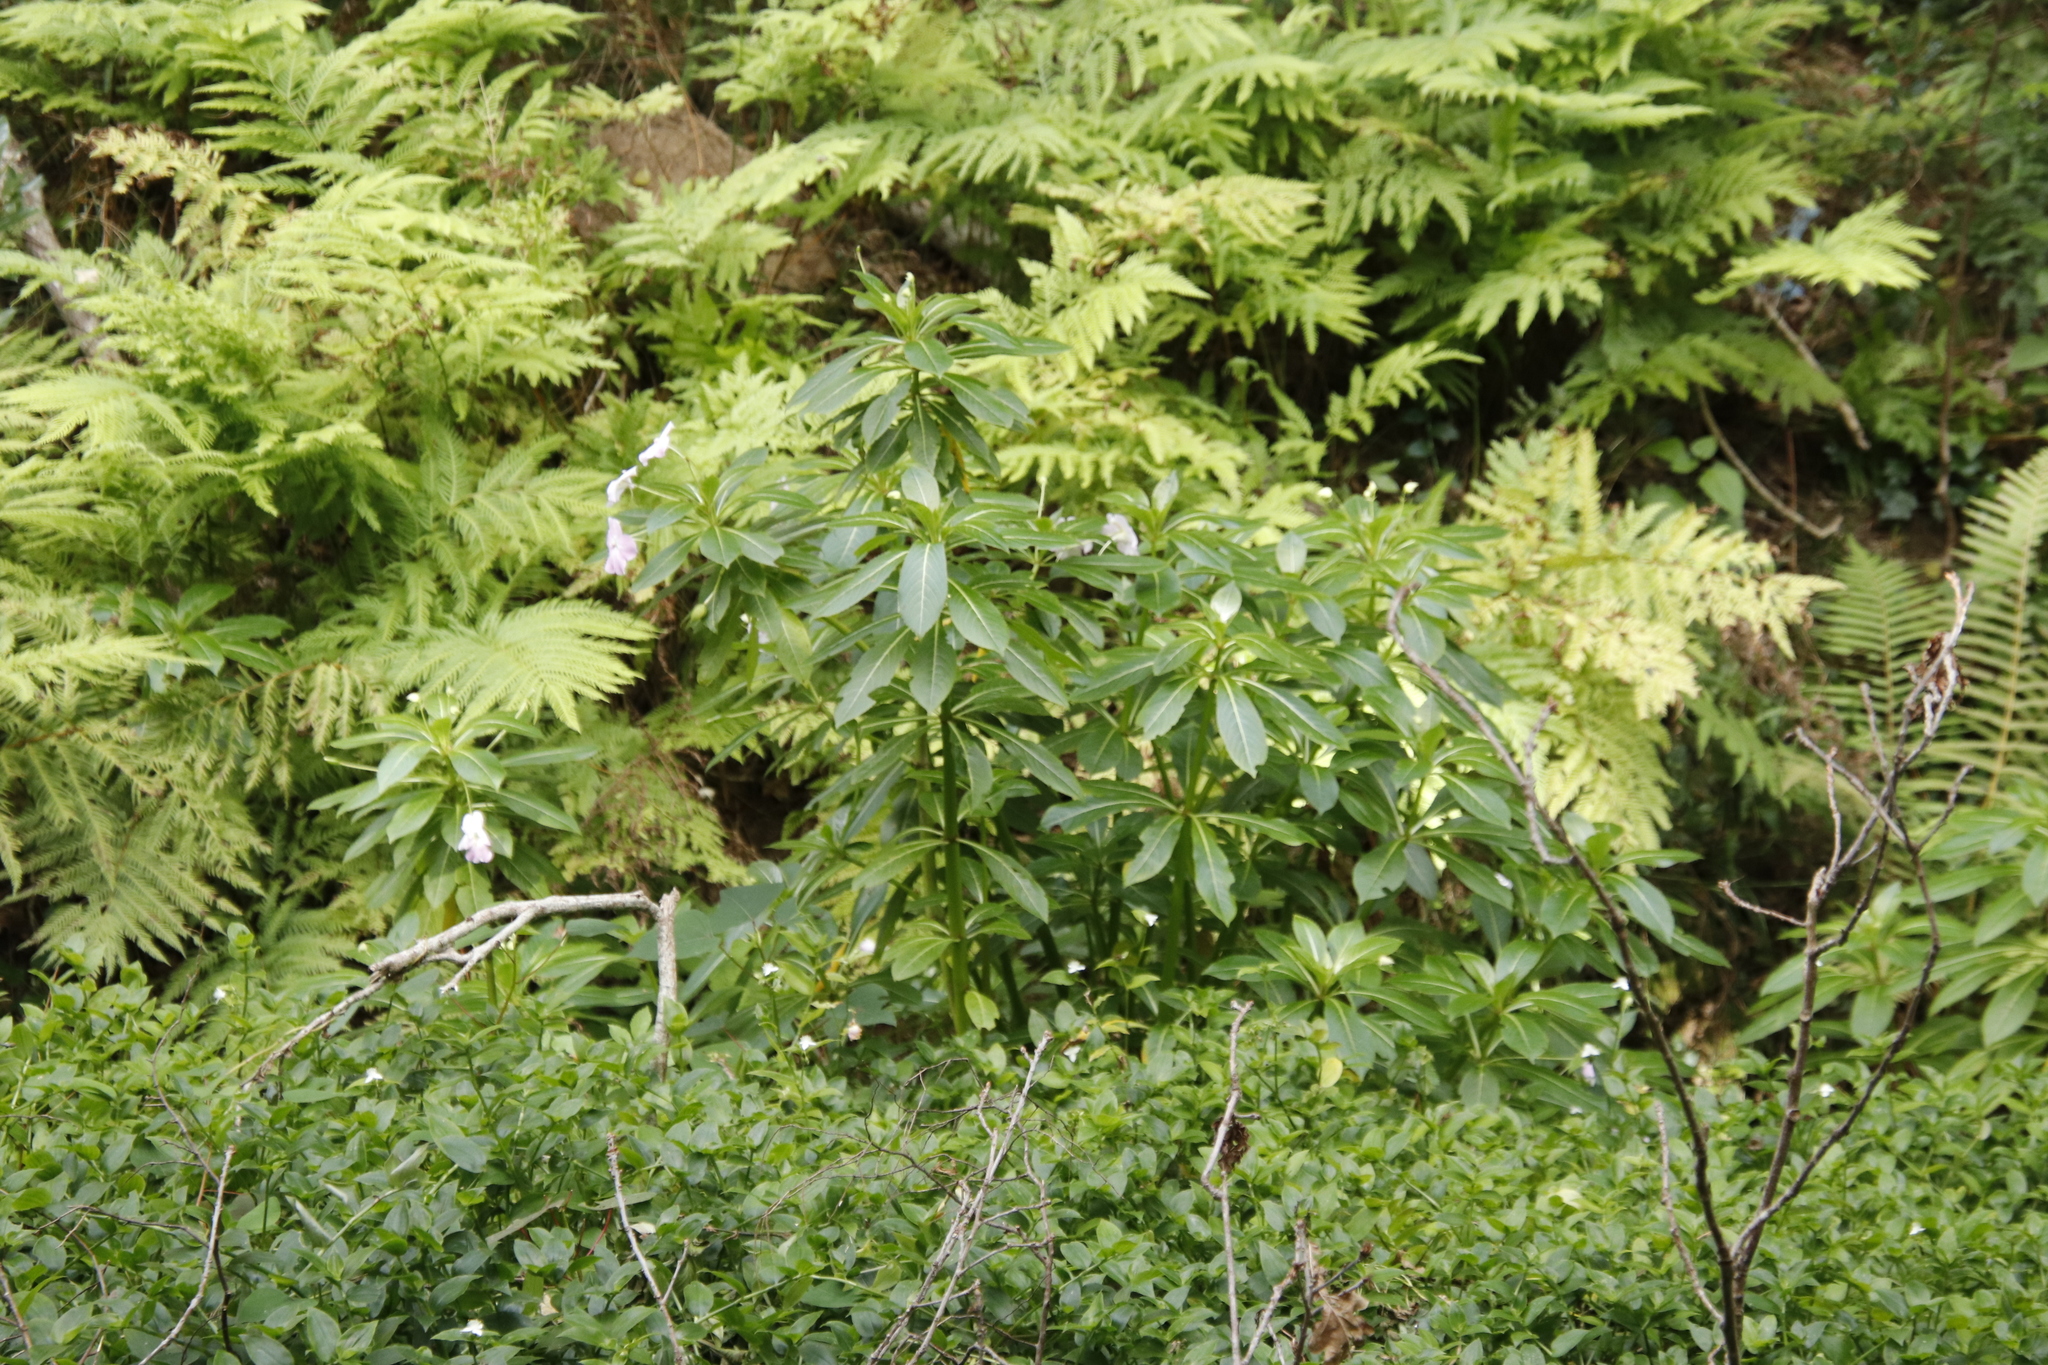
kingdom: Plantae
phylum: Tracheophyta
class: Magnoliopsida
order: Ericales
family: Balsaminaceae
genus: Impatiens
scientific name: Impatiens sodenii
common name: Oliver's touch-me-not
